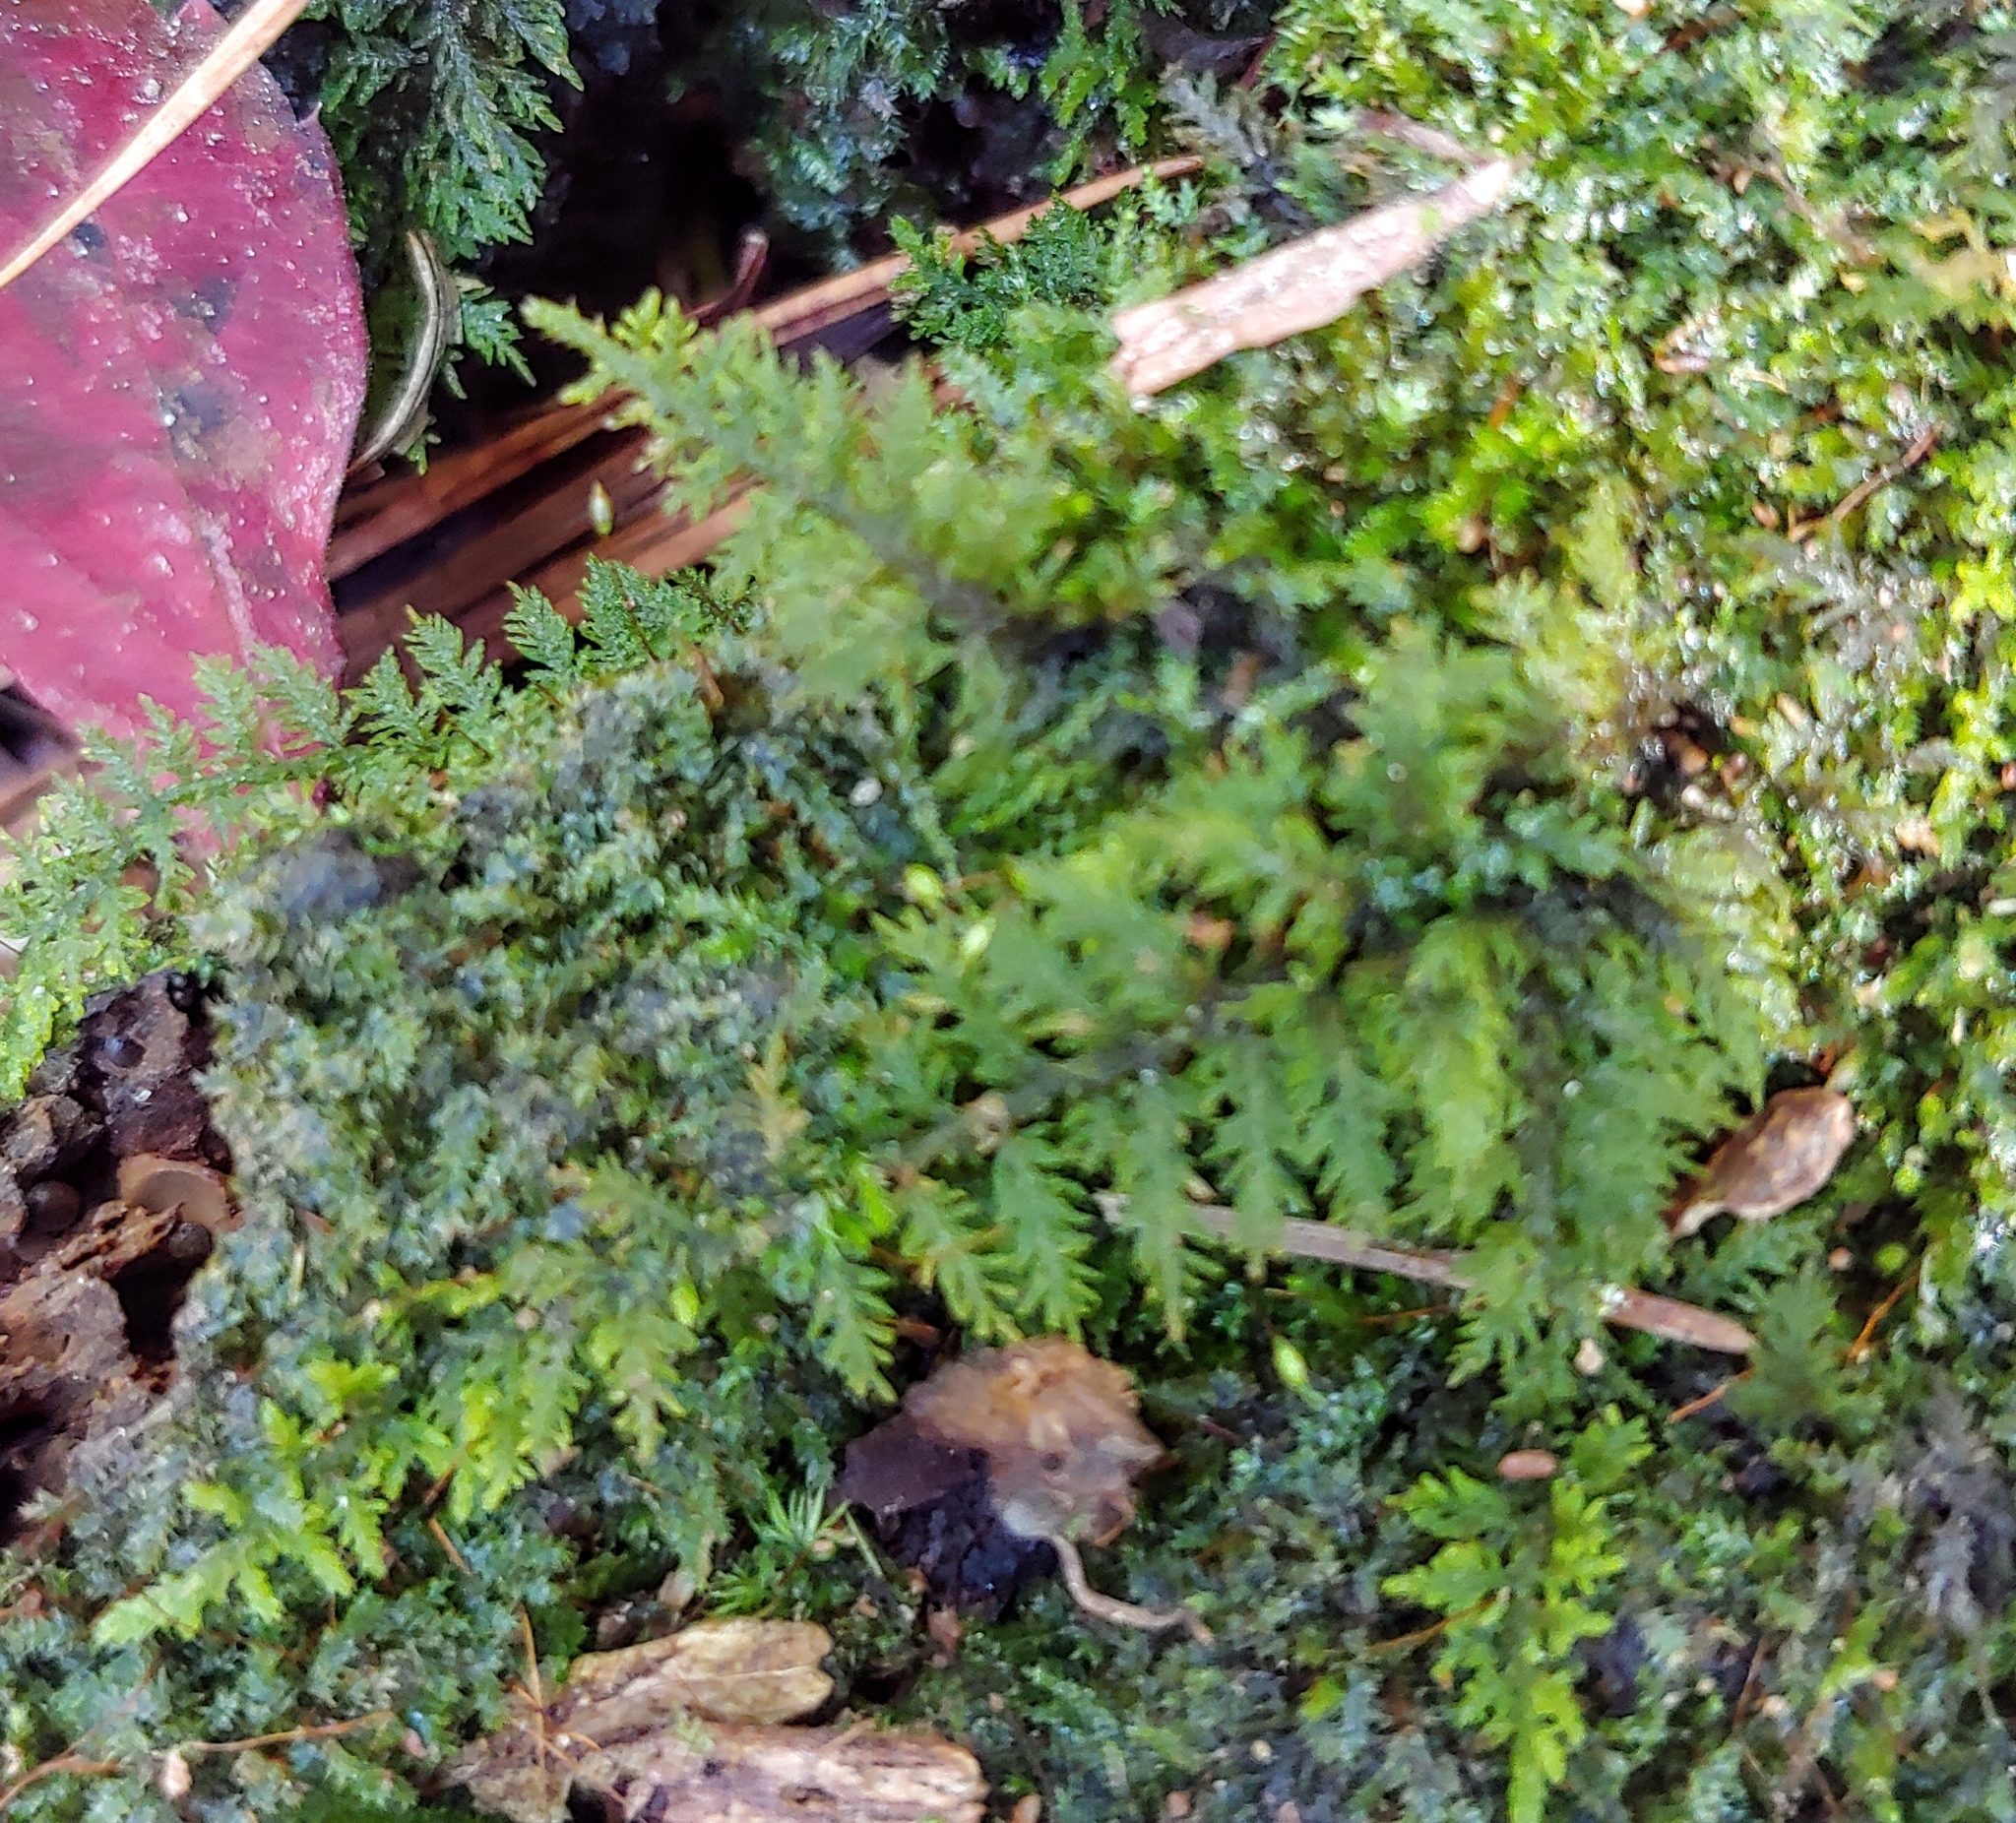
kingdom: Plantae
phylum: Bryophyta
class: Bryopsida
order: Hypnales
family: Thuidiaceae
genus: Thuidium
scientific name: Thuidium delicatulum
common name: Delicate fern moss
